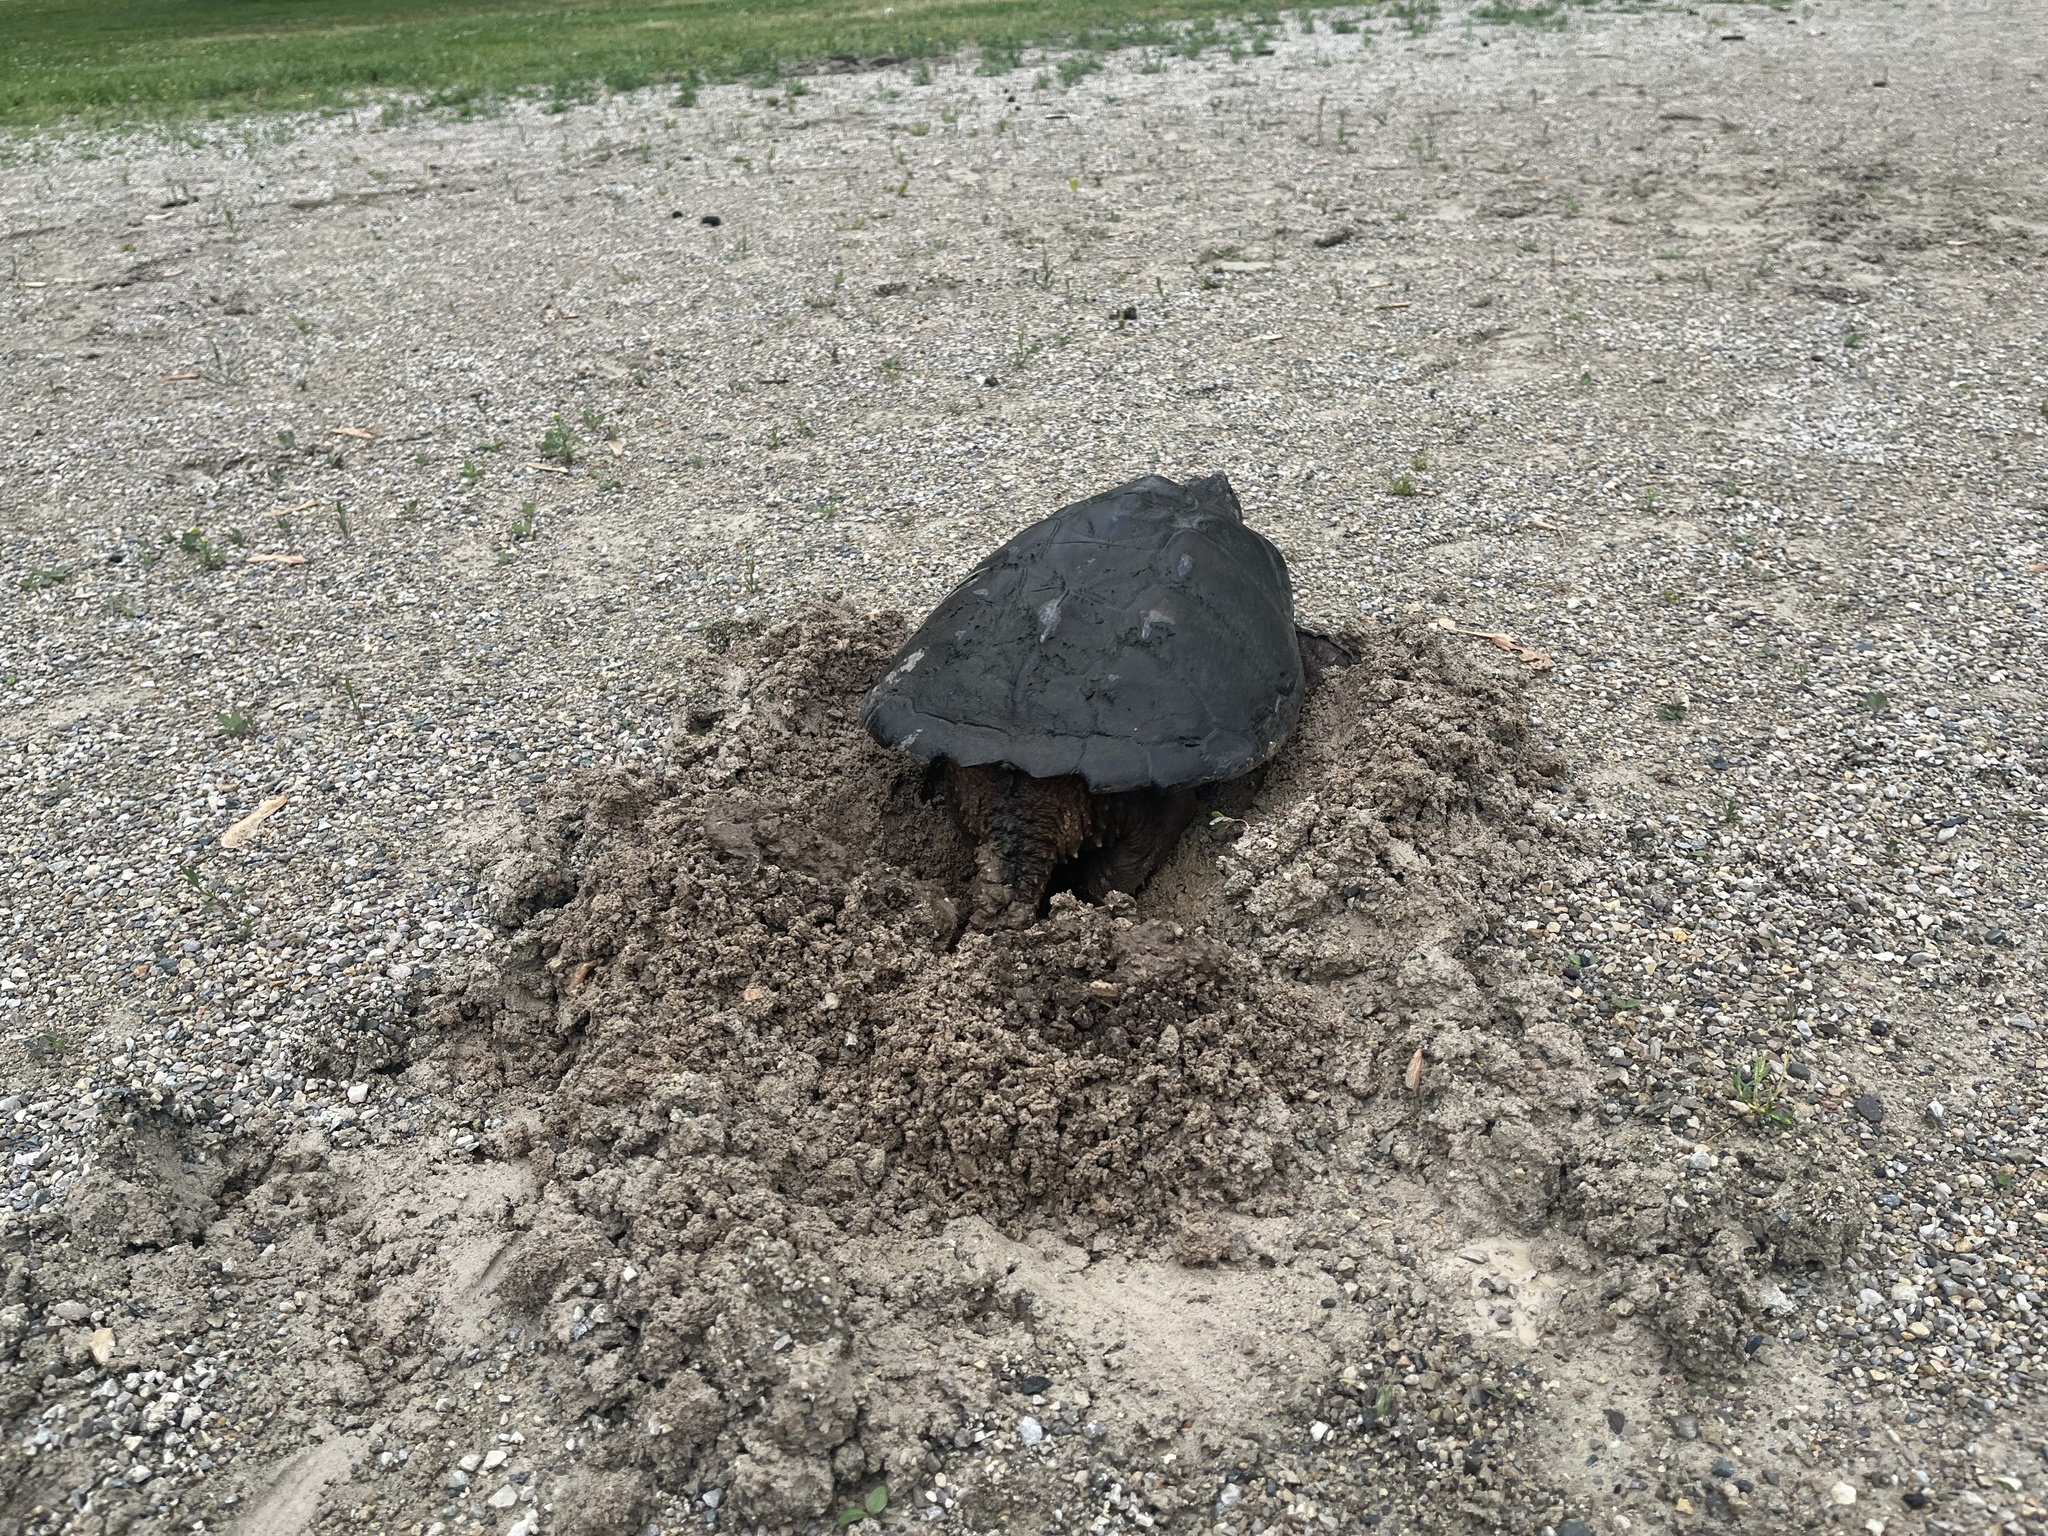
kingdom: Animalia
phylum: Chordata
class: Testudines
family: Chelydridae
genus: Chelydra
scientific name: Chelydra serpentina
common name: Common snapping turtle
